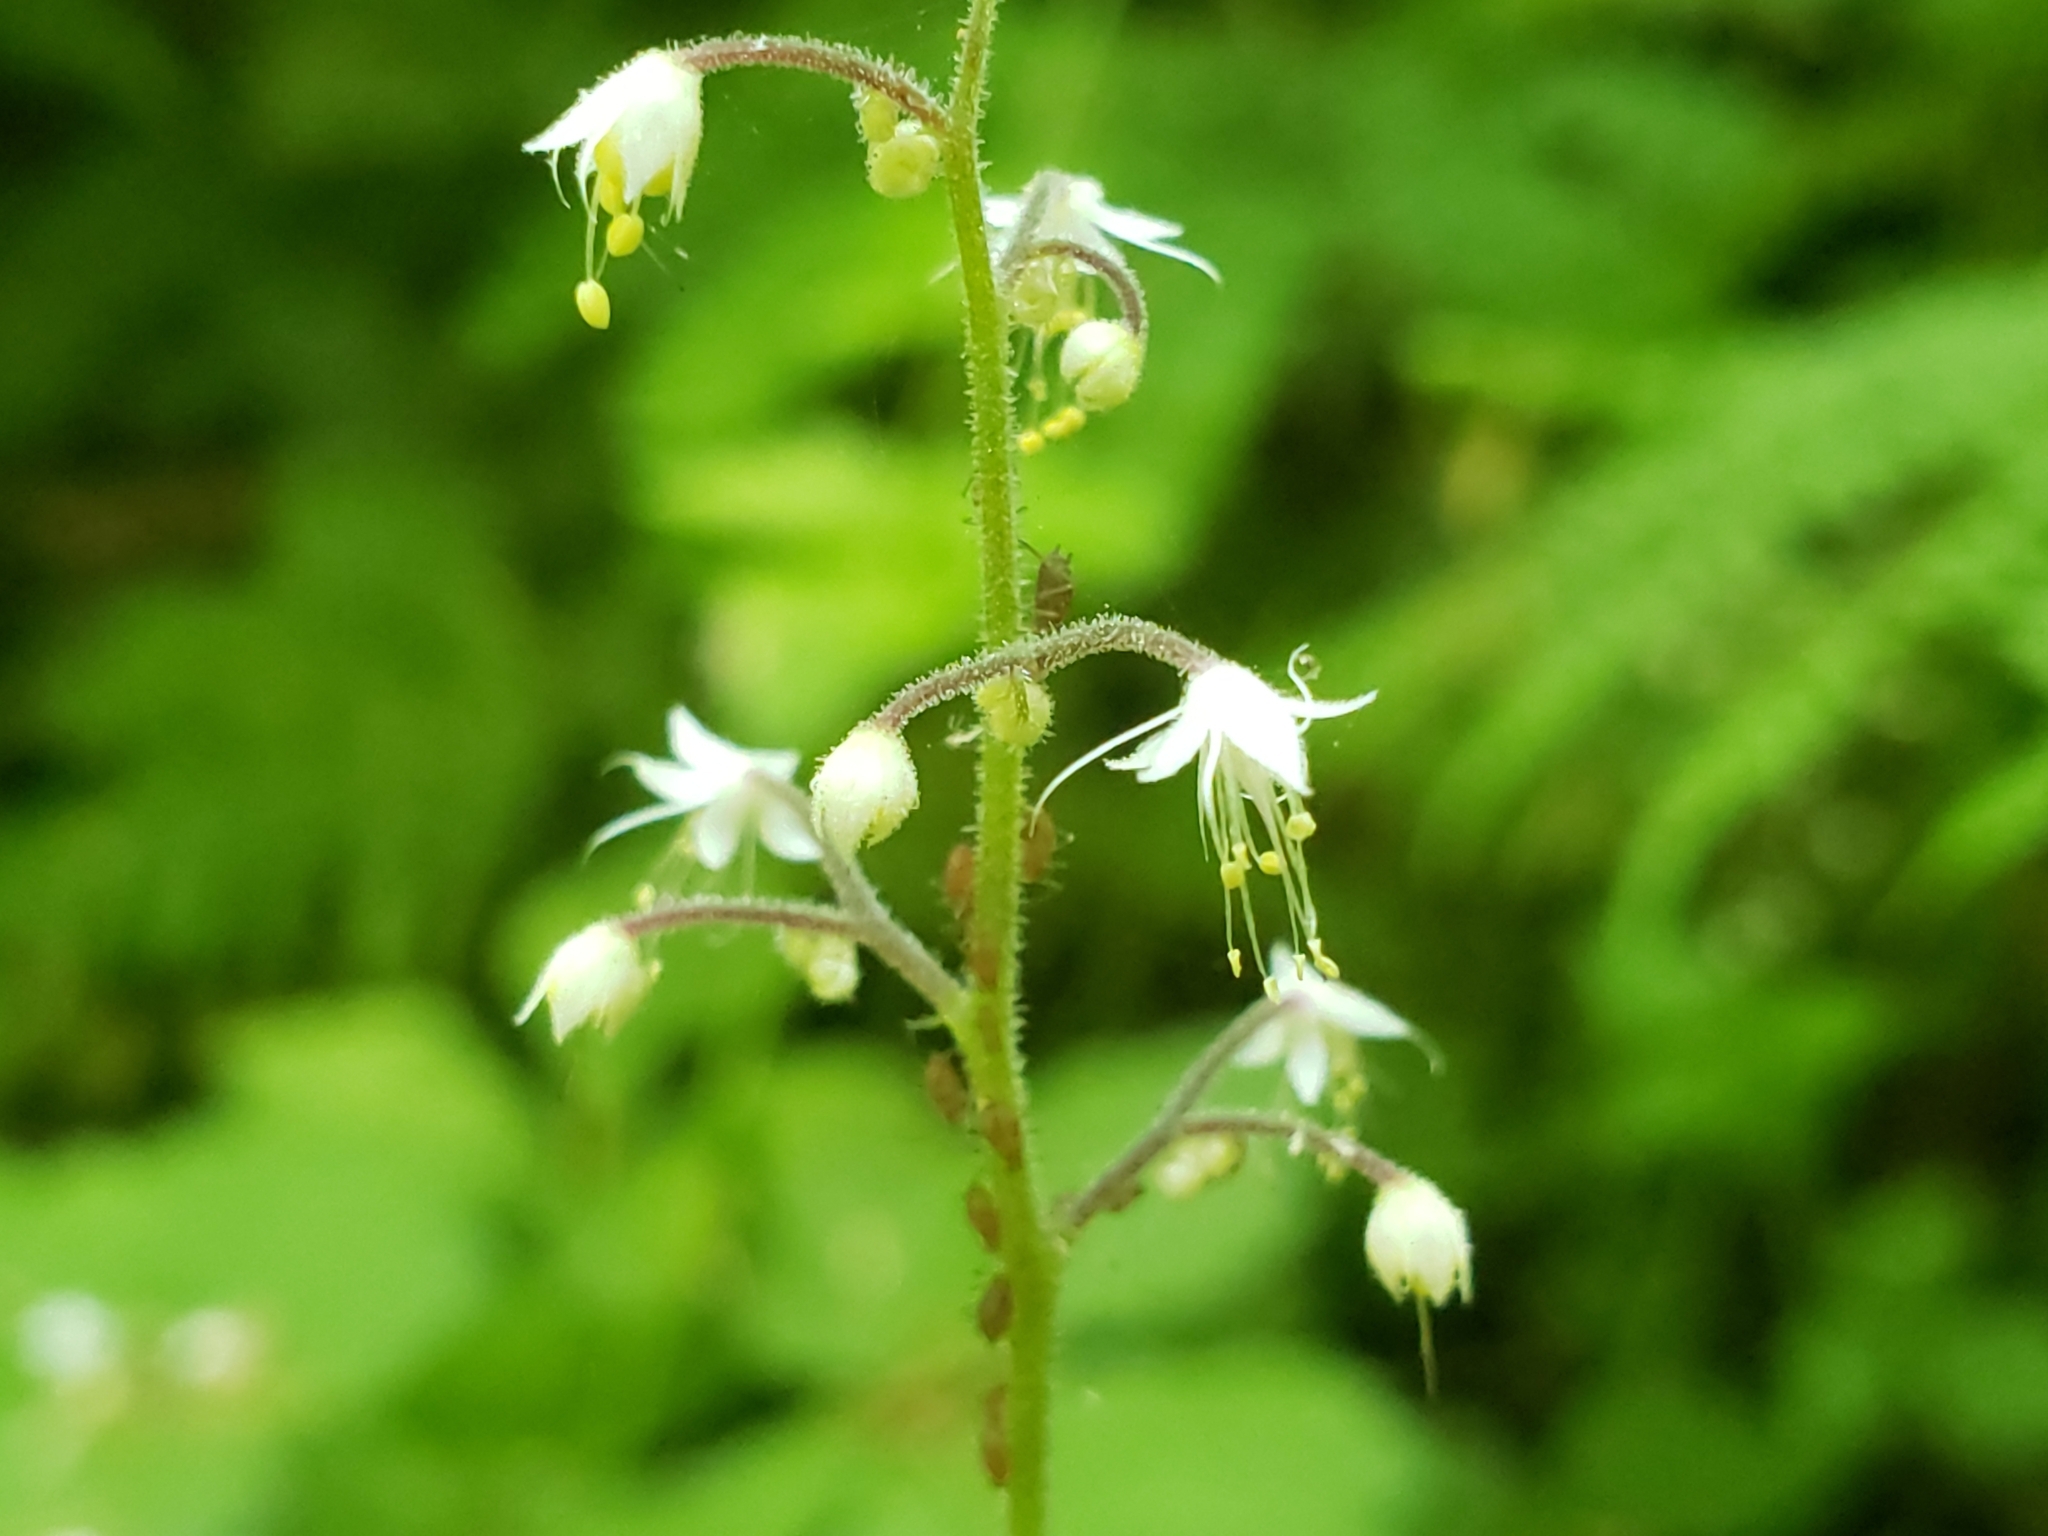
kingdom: Plantae
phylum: Tracheophyta
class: Magnoliopsida
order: Saxifragales
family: Saxifragaceae
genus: Tiarella
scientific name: Tiarella trifoliata
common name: Sugar-scoop
